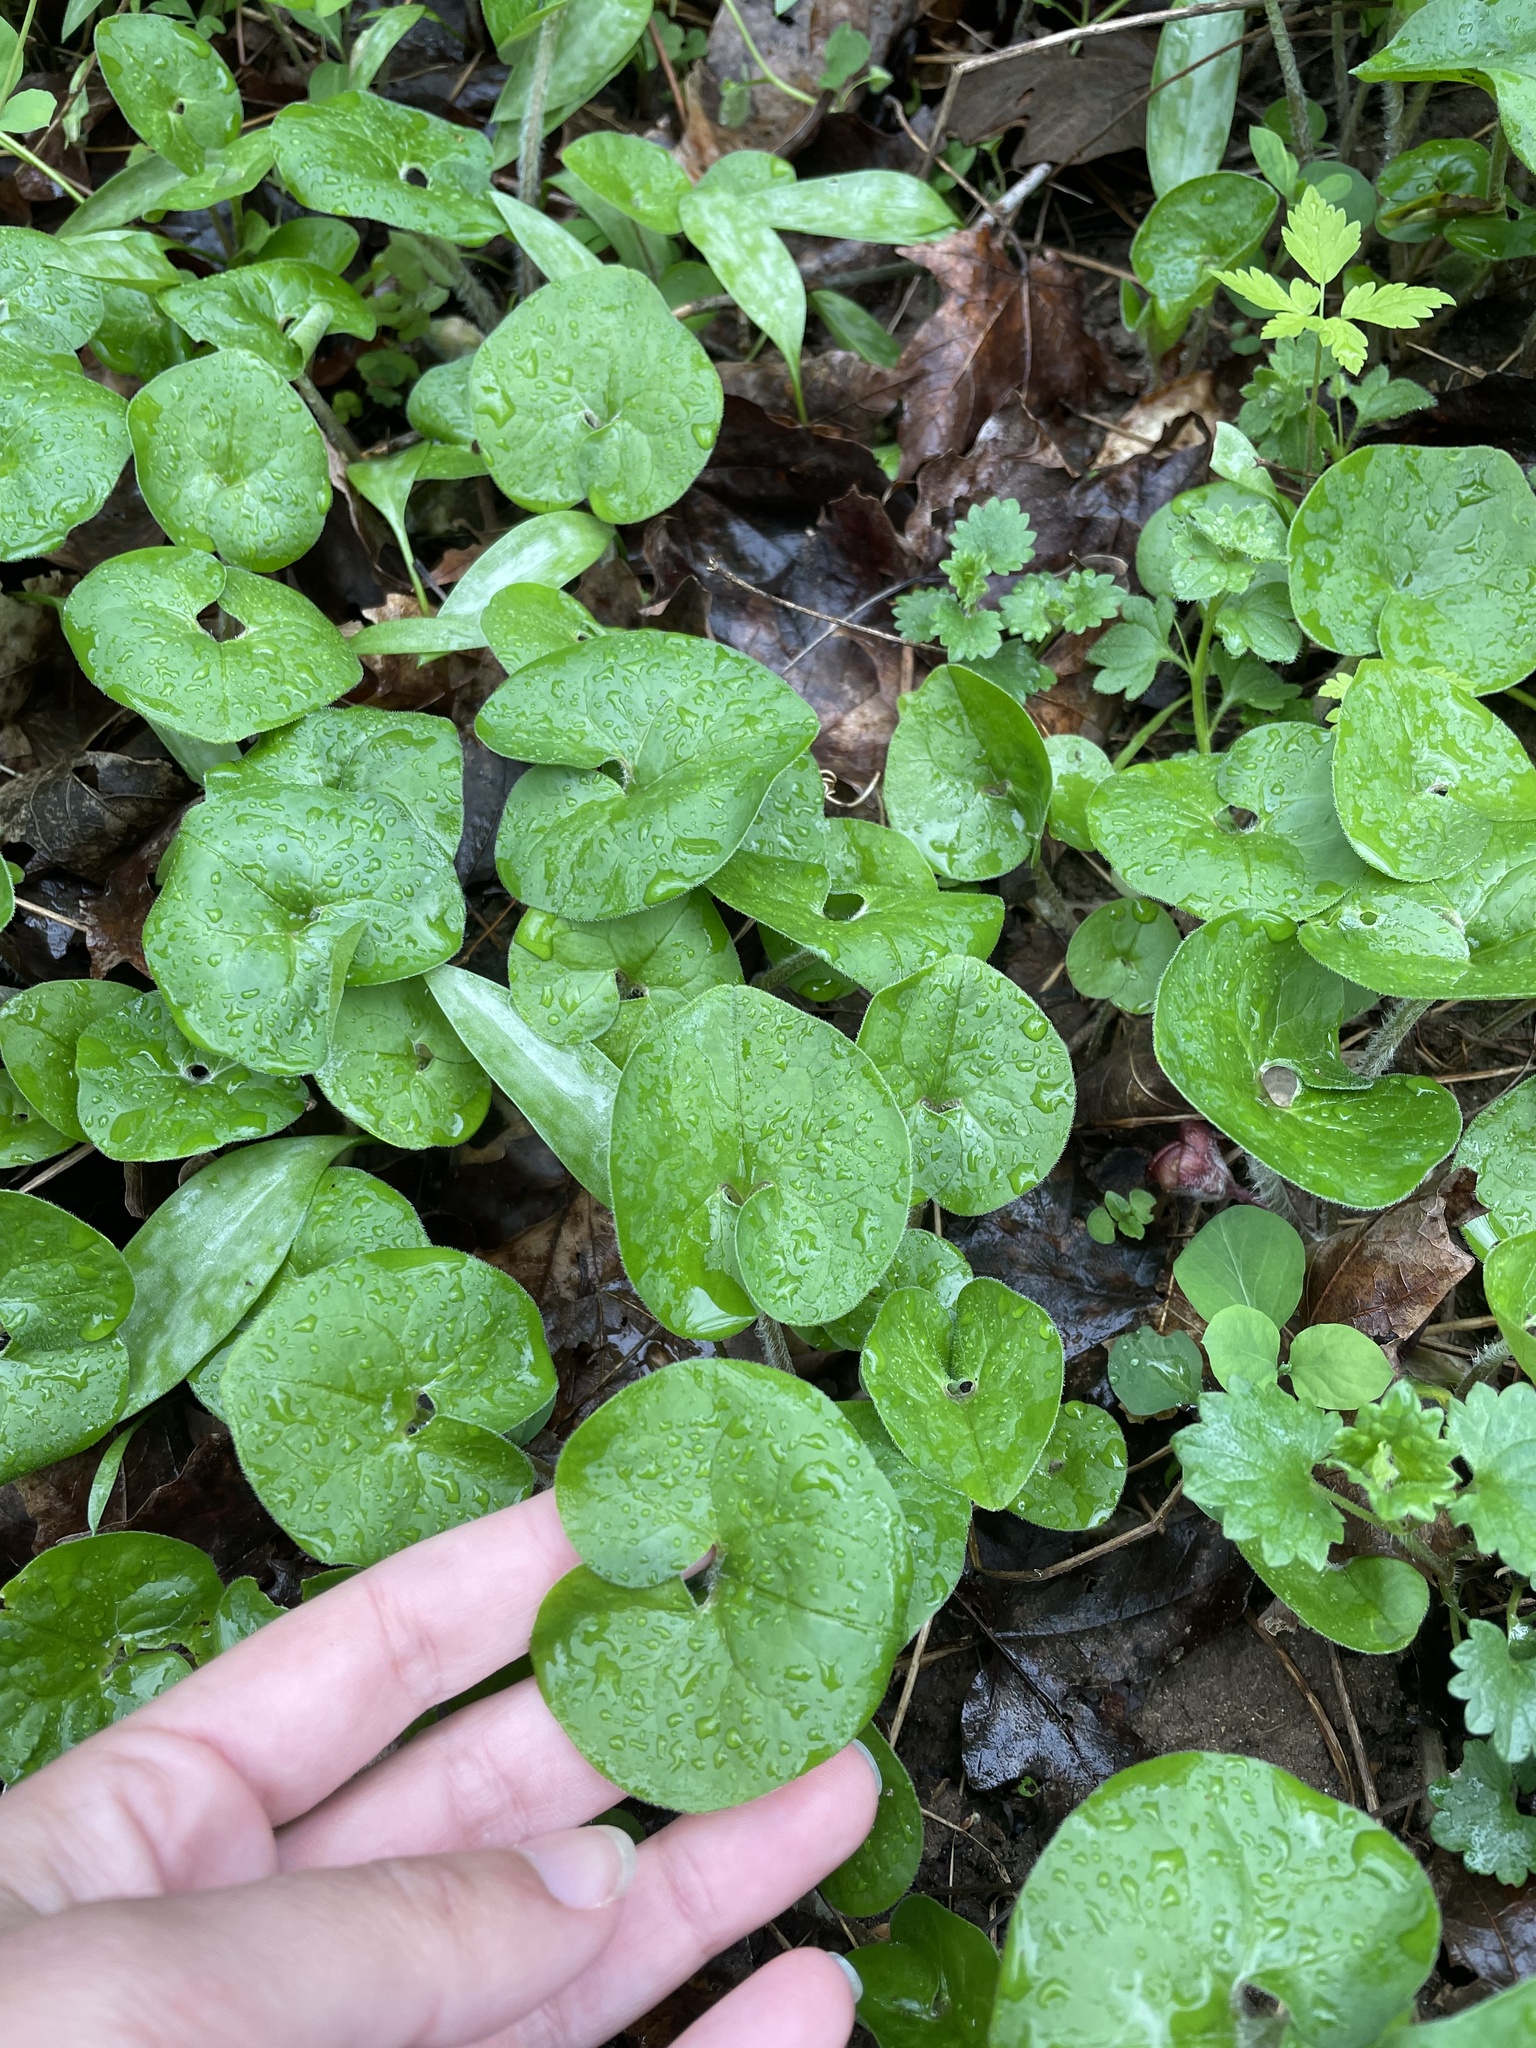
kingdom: Plantae
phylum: Tracheophyta
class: Magnoliopsida
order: Piperales
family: Aristolochiaceae
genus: Asarum
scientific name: Asarum canadense
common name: Wild ginger
